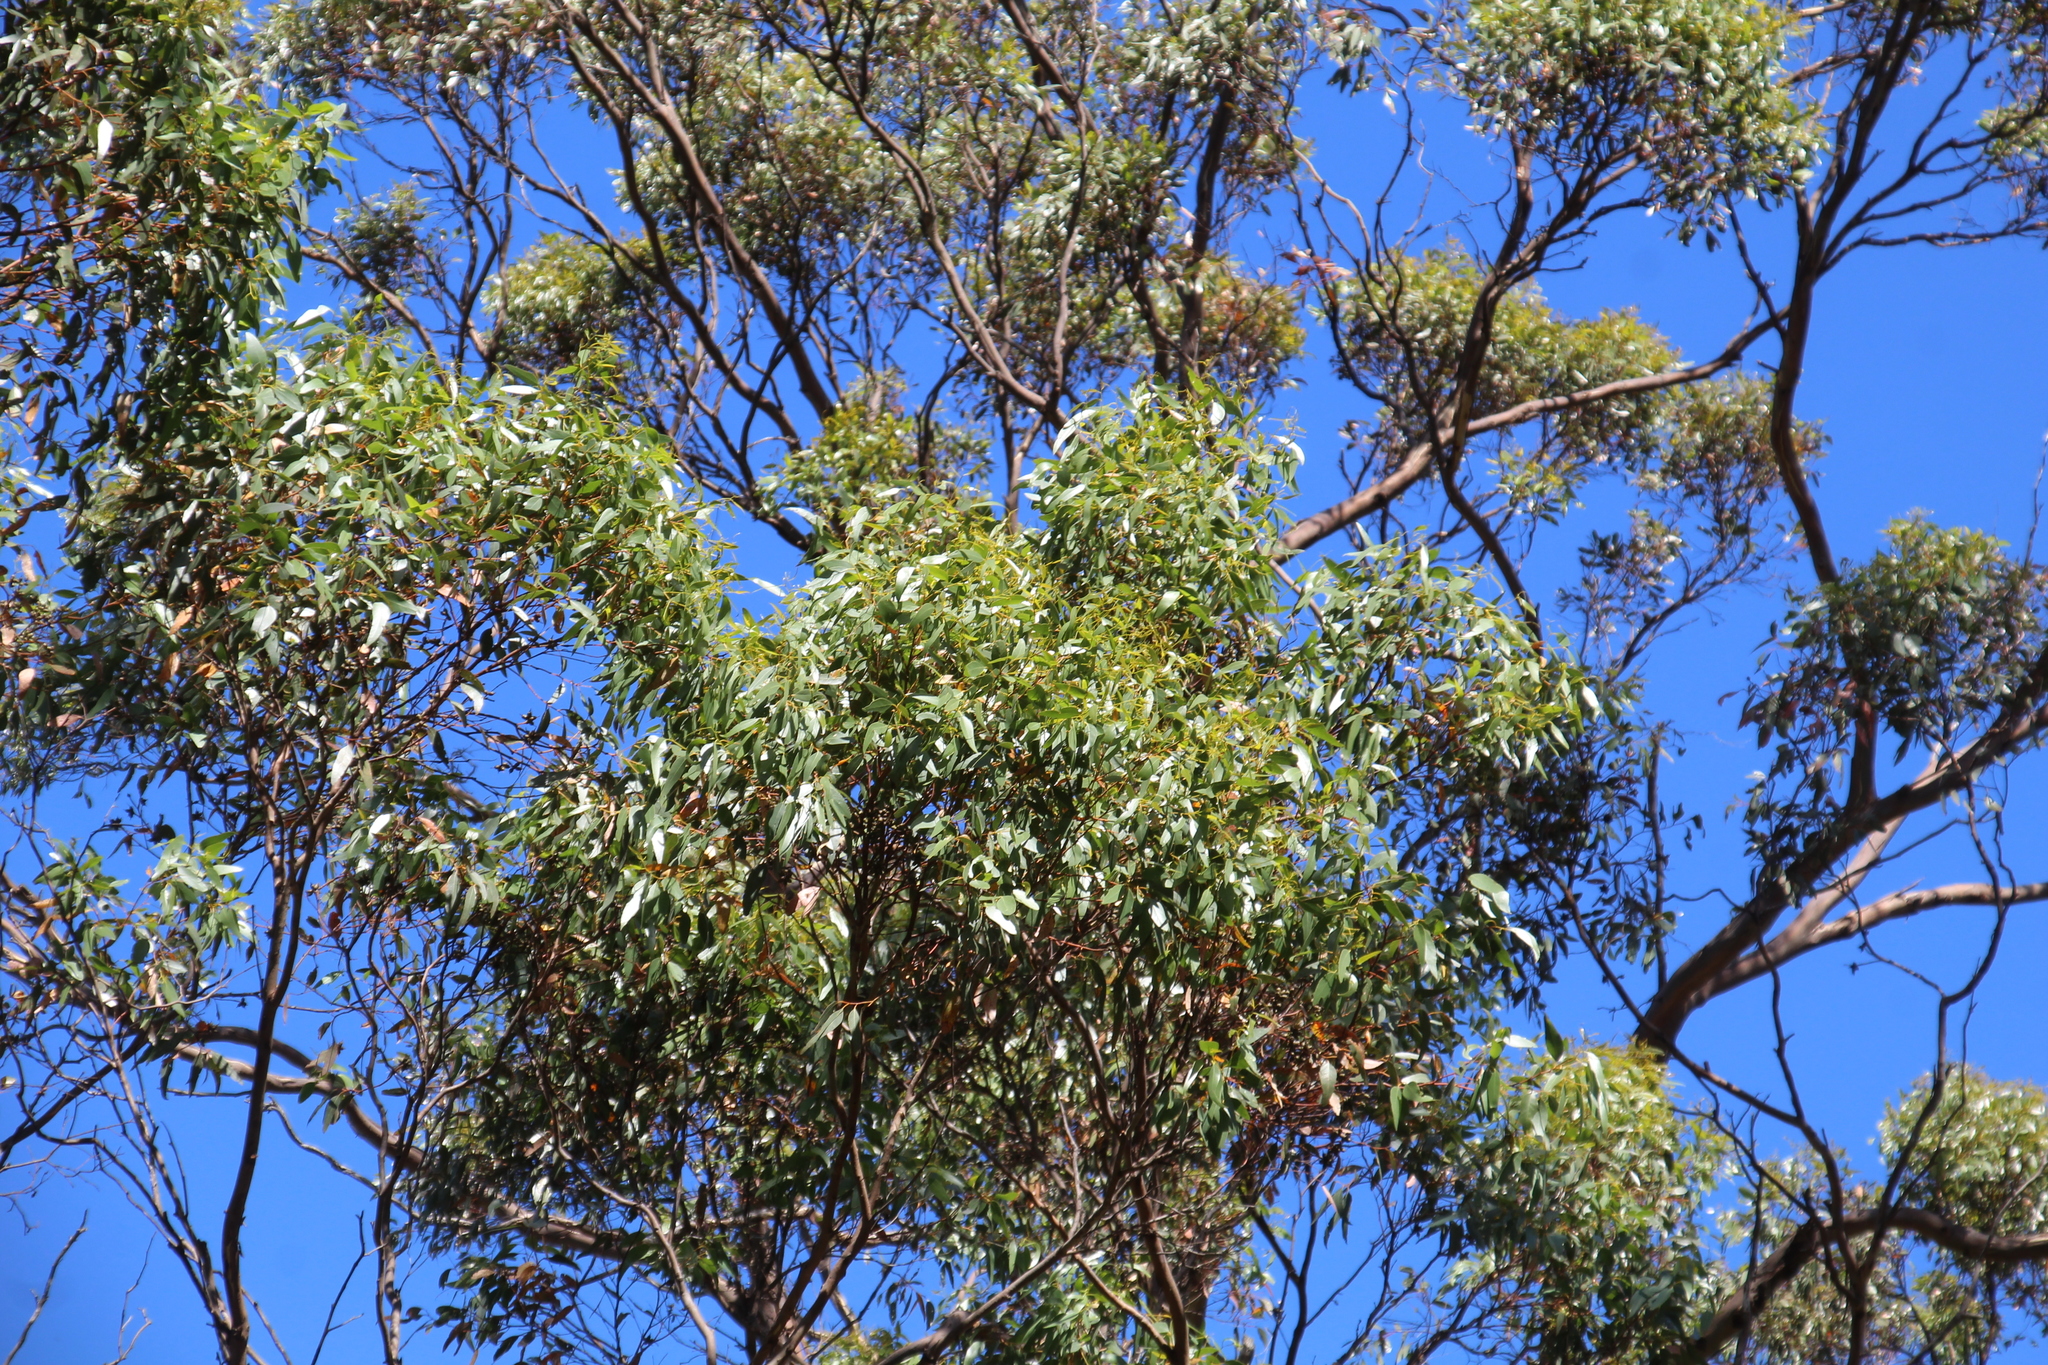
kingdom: Plantae
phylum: Tracheophyta
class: Magnoliopsida
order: Myrtales
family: Myrtaceae
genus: Eucalyptus
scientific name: Eucalyptus cornuta
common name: Yate
